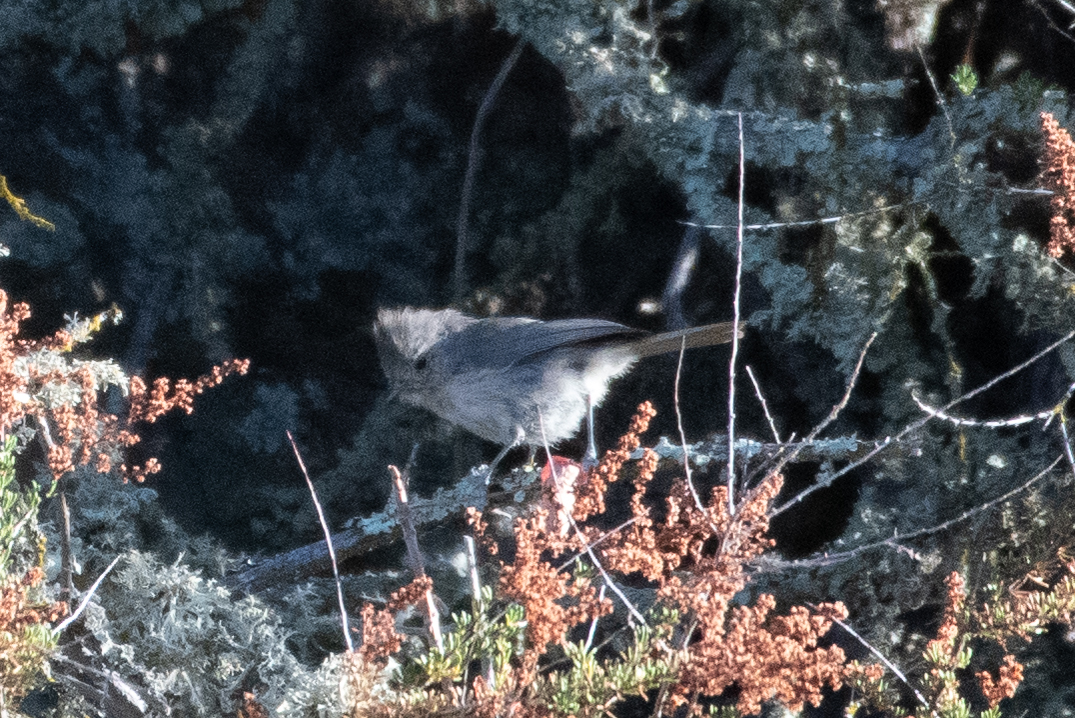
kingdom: Animalia
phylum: Chordata
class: Aves
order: Passeriformes
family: Paridae
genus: Baeolophus
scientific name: Baeolophus inornatus
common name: Oak titmouse
